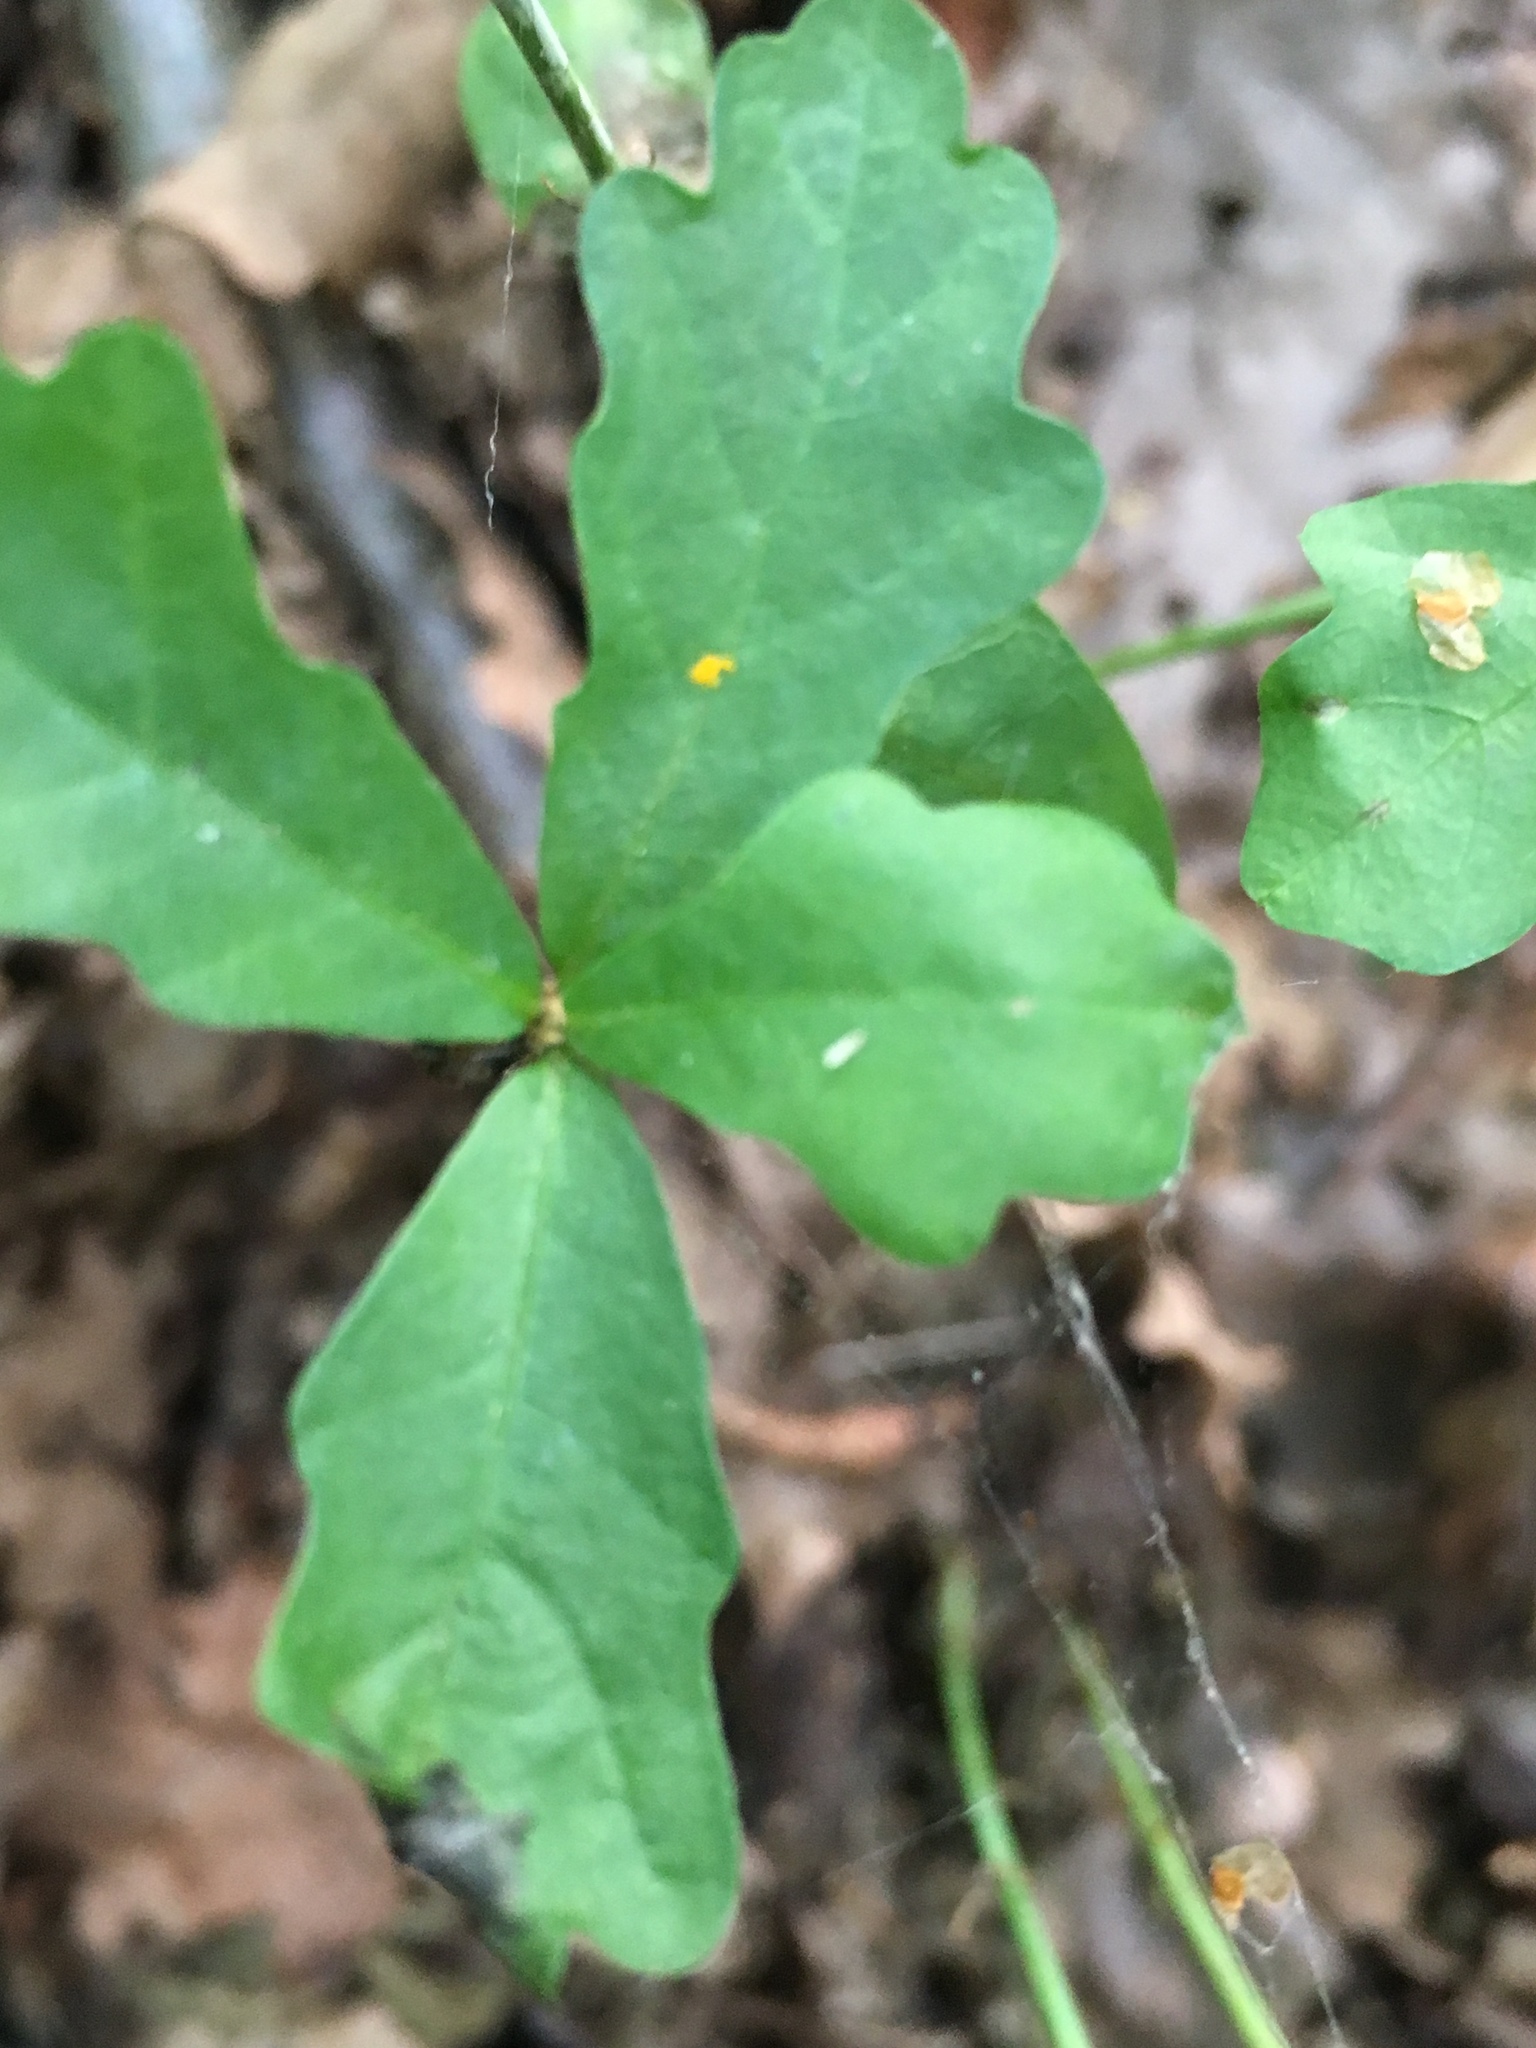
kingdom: Plantae
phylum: Tracheophyta
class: Magnoliopsida
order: Fagales
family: Fagaceae
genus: Quercus
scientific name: Quercus robur
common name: Pedunculate oak
